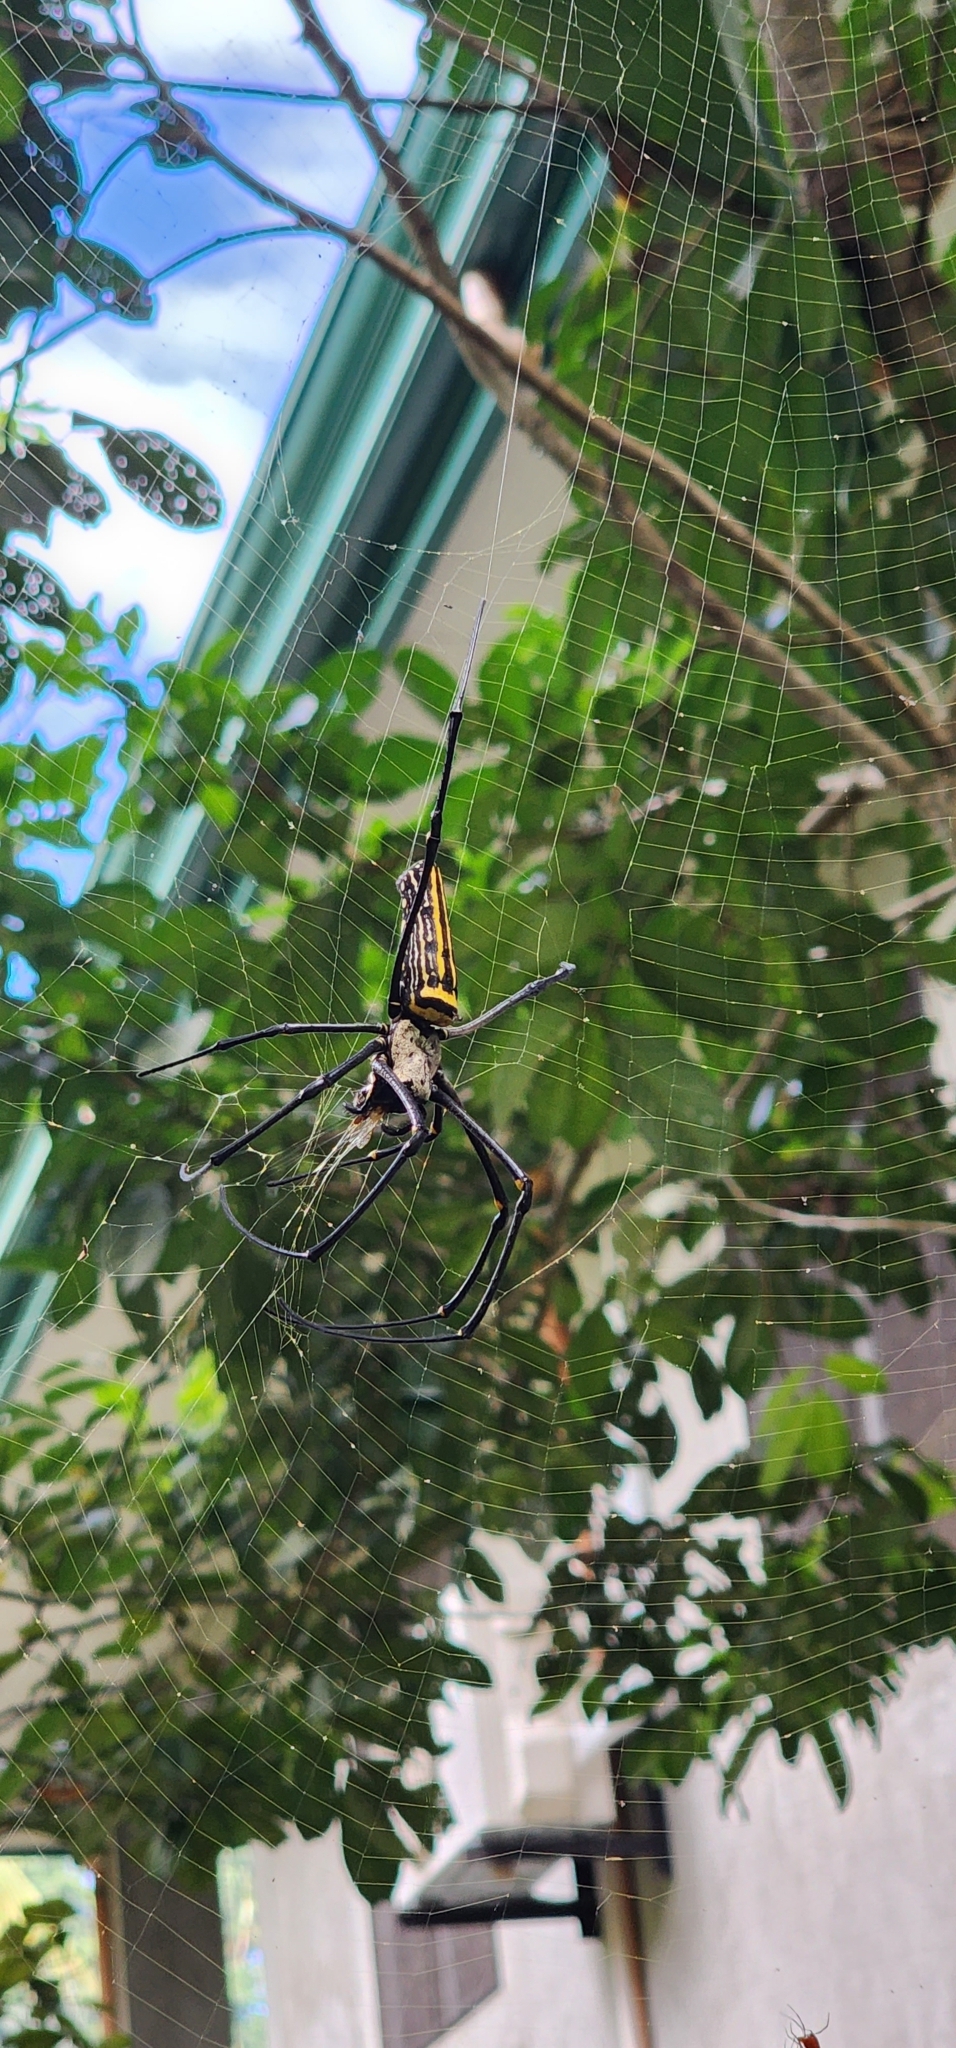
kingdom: Animalia
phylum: Arthropoda
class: Arachnida
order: Araneae
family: Araneidae
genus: Nephila
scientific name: Nephila pilipes
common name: Giant golden orb weaver
